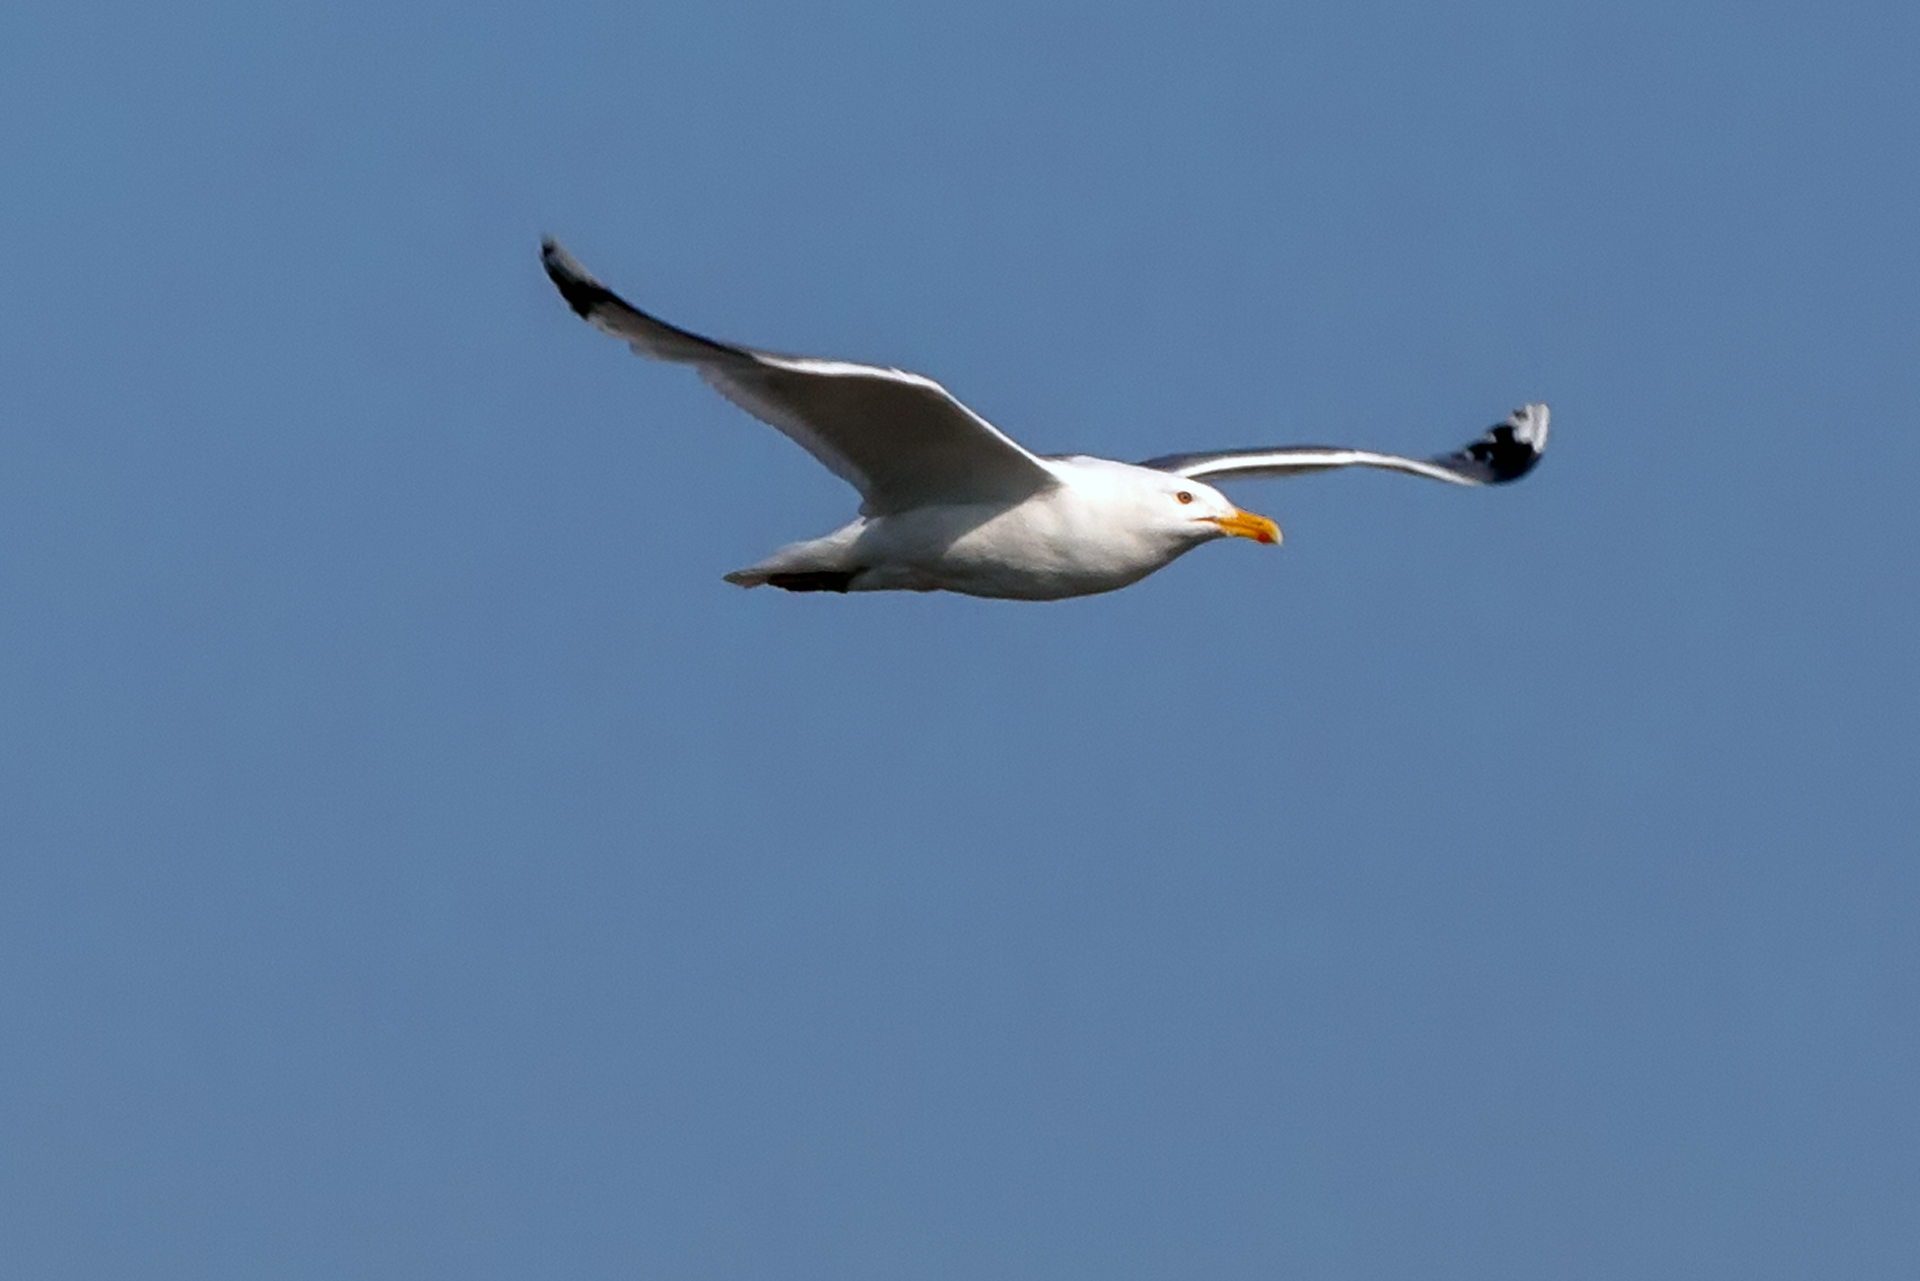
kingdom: Animalia
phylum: Chordata
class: Aves
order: Charadriiformes
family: Laridae
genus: Larus
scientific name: Larus fuscus
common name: Lesser black-backed gull
